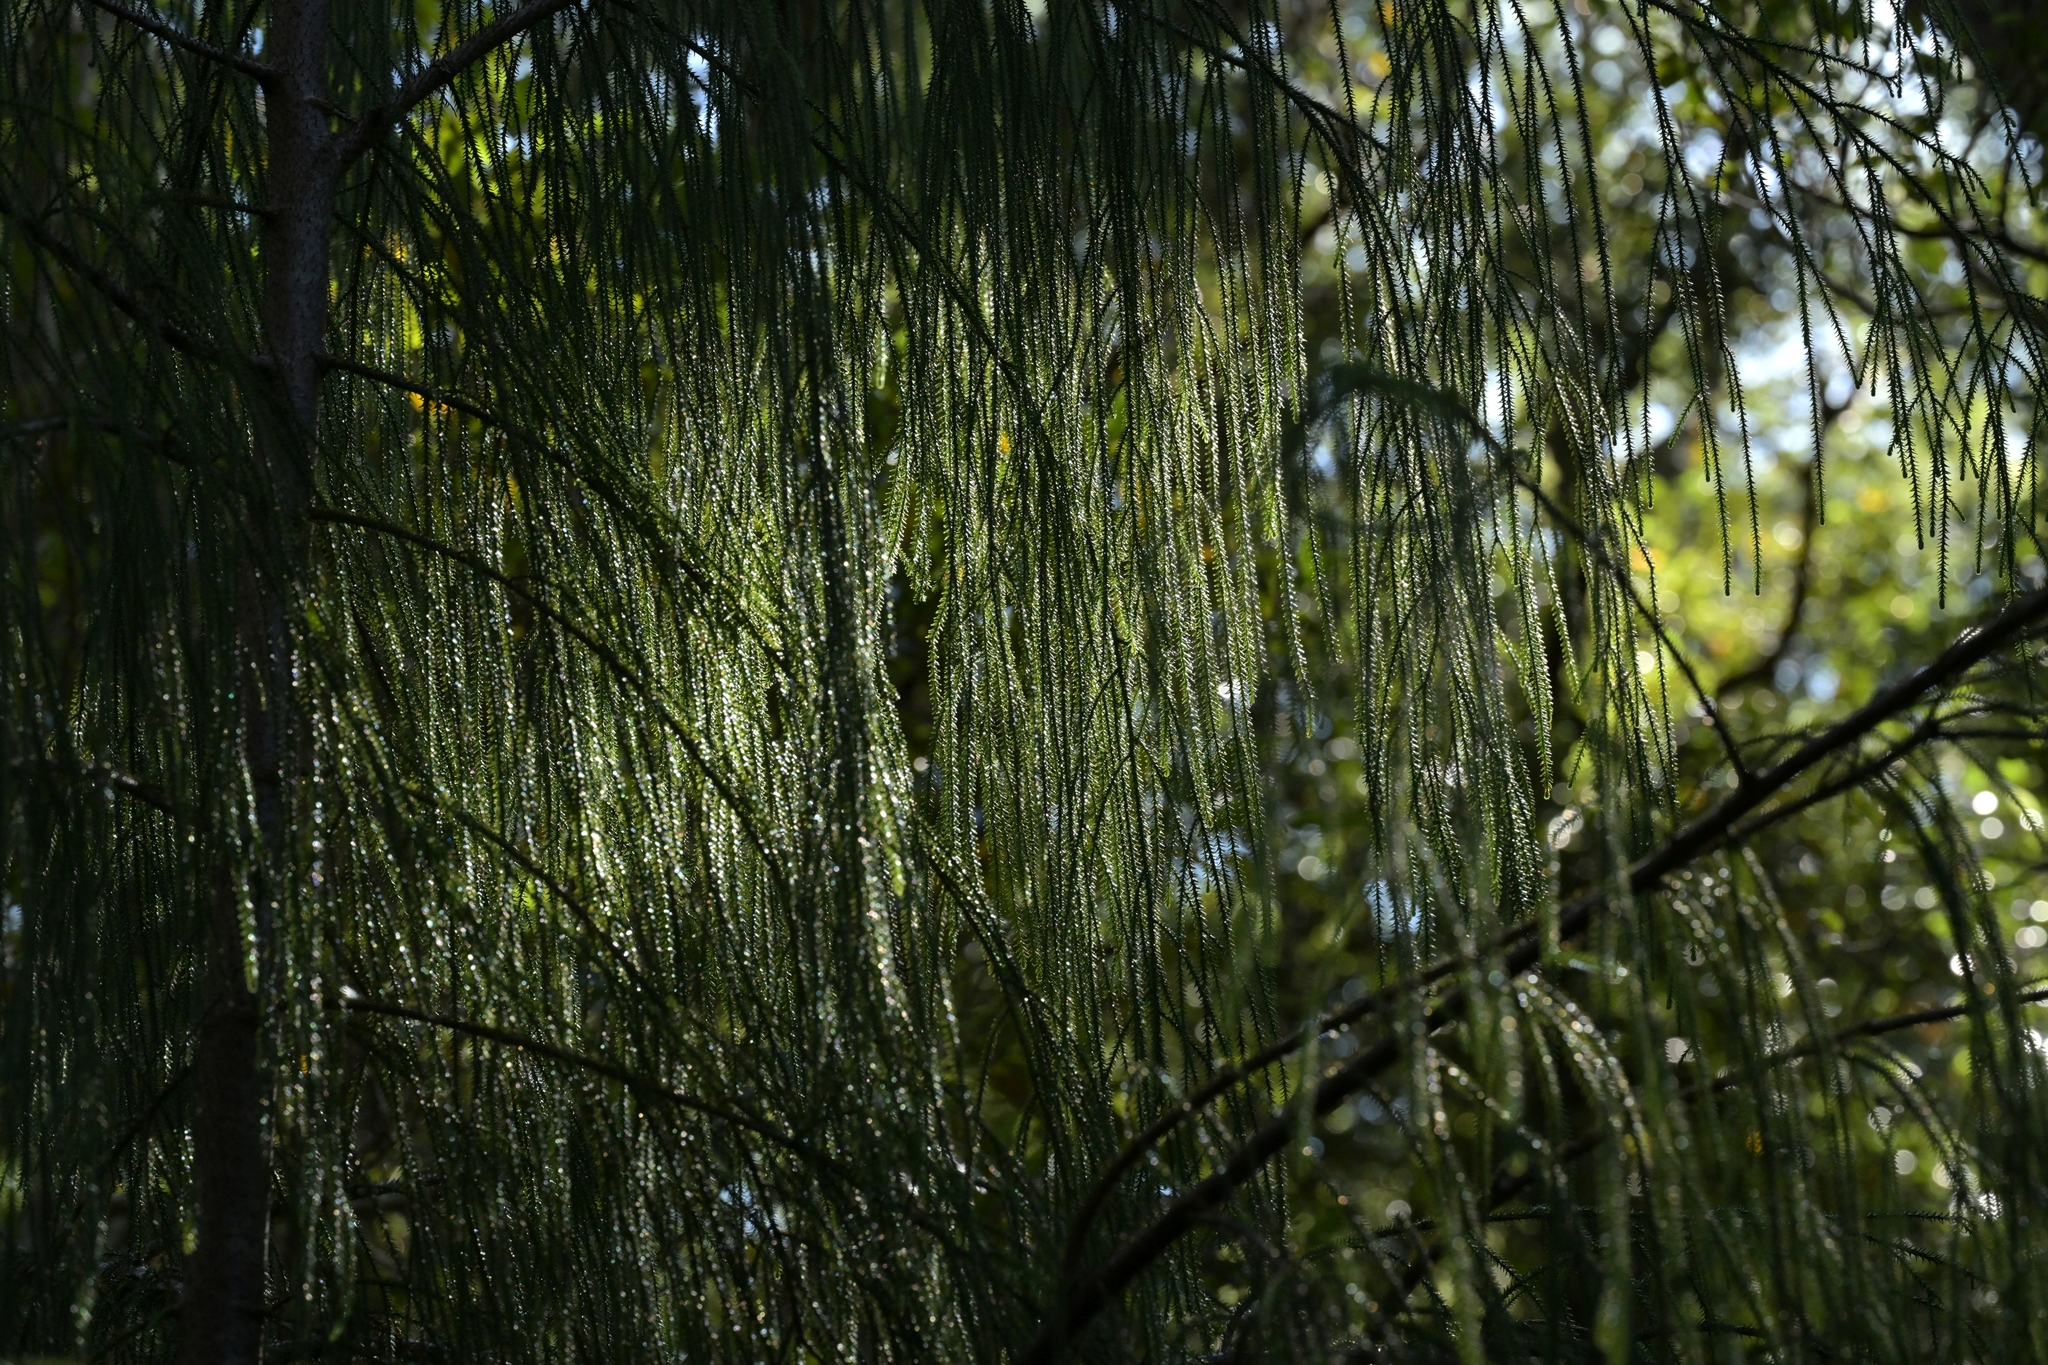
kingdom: Plantae
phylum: Tracheophyta
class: Pinopsida
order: Pinales
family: Podocarpaceae
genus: Dacrydium
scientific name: Dacrydium cupressinum
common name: Red pine
